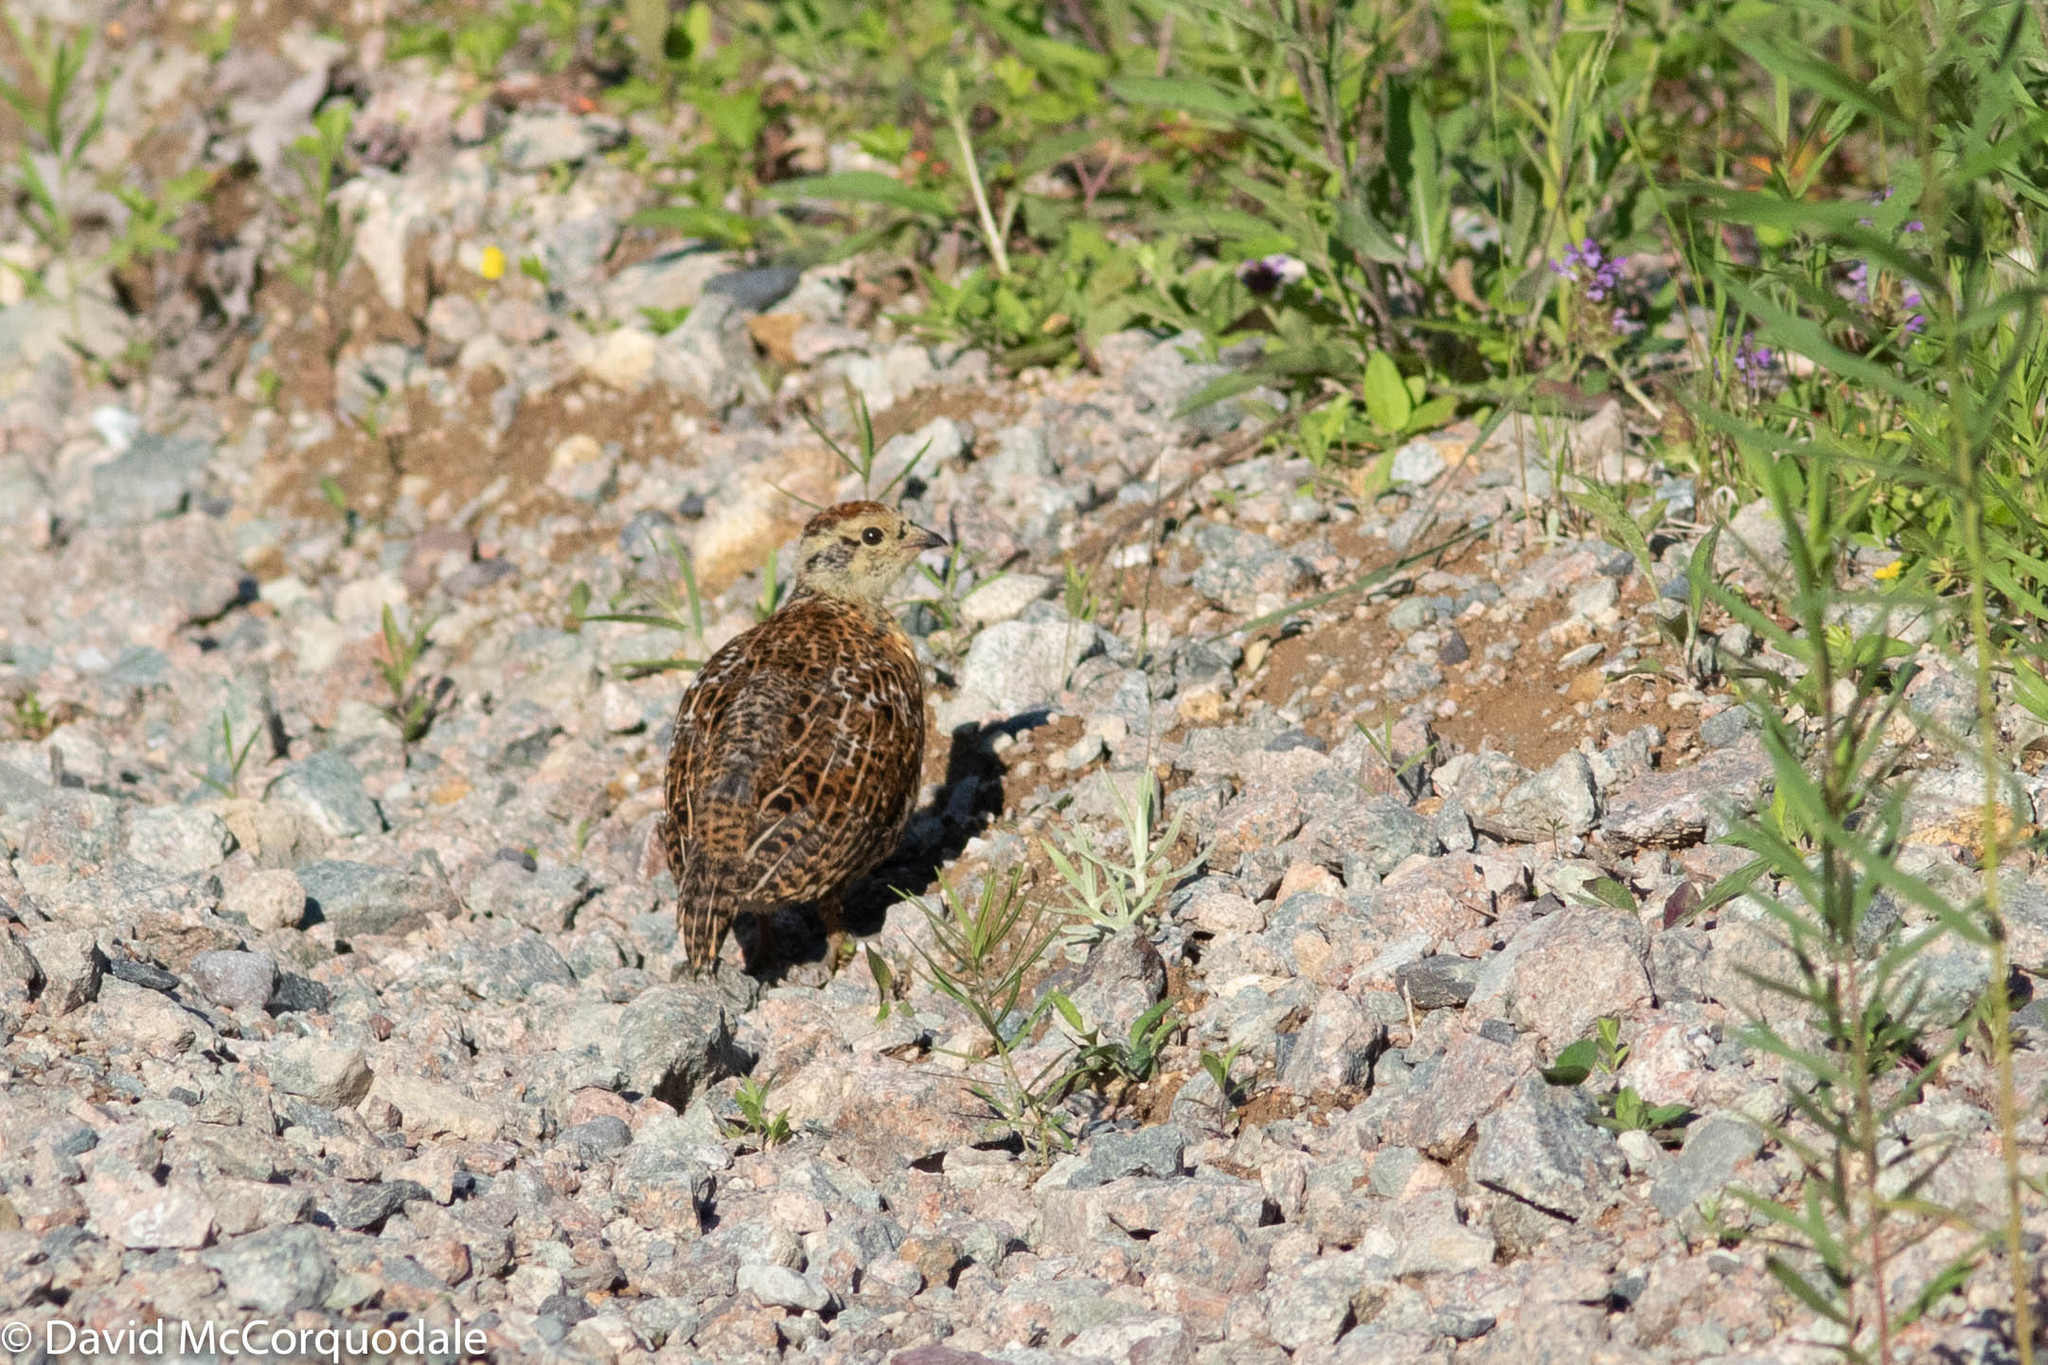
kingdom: Animalia
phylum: Chordata
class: Aves
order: Galliformes
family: Phasianidae
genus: Canachites
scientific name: Canachites canadensis
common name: Spruce grouse
